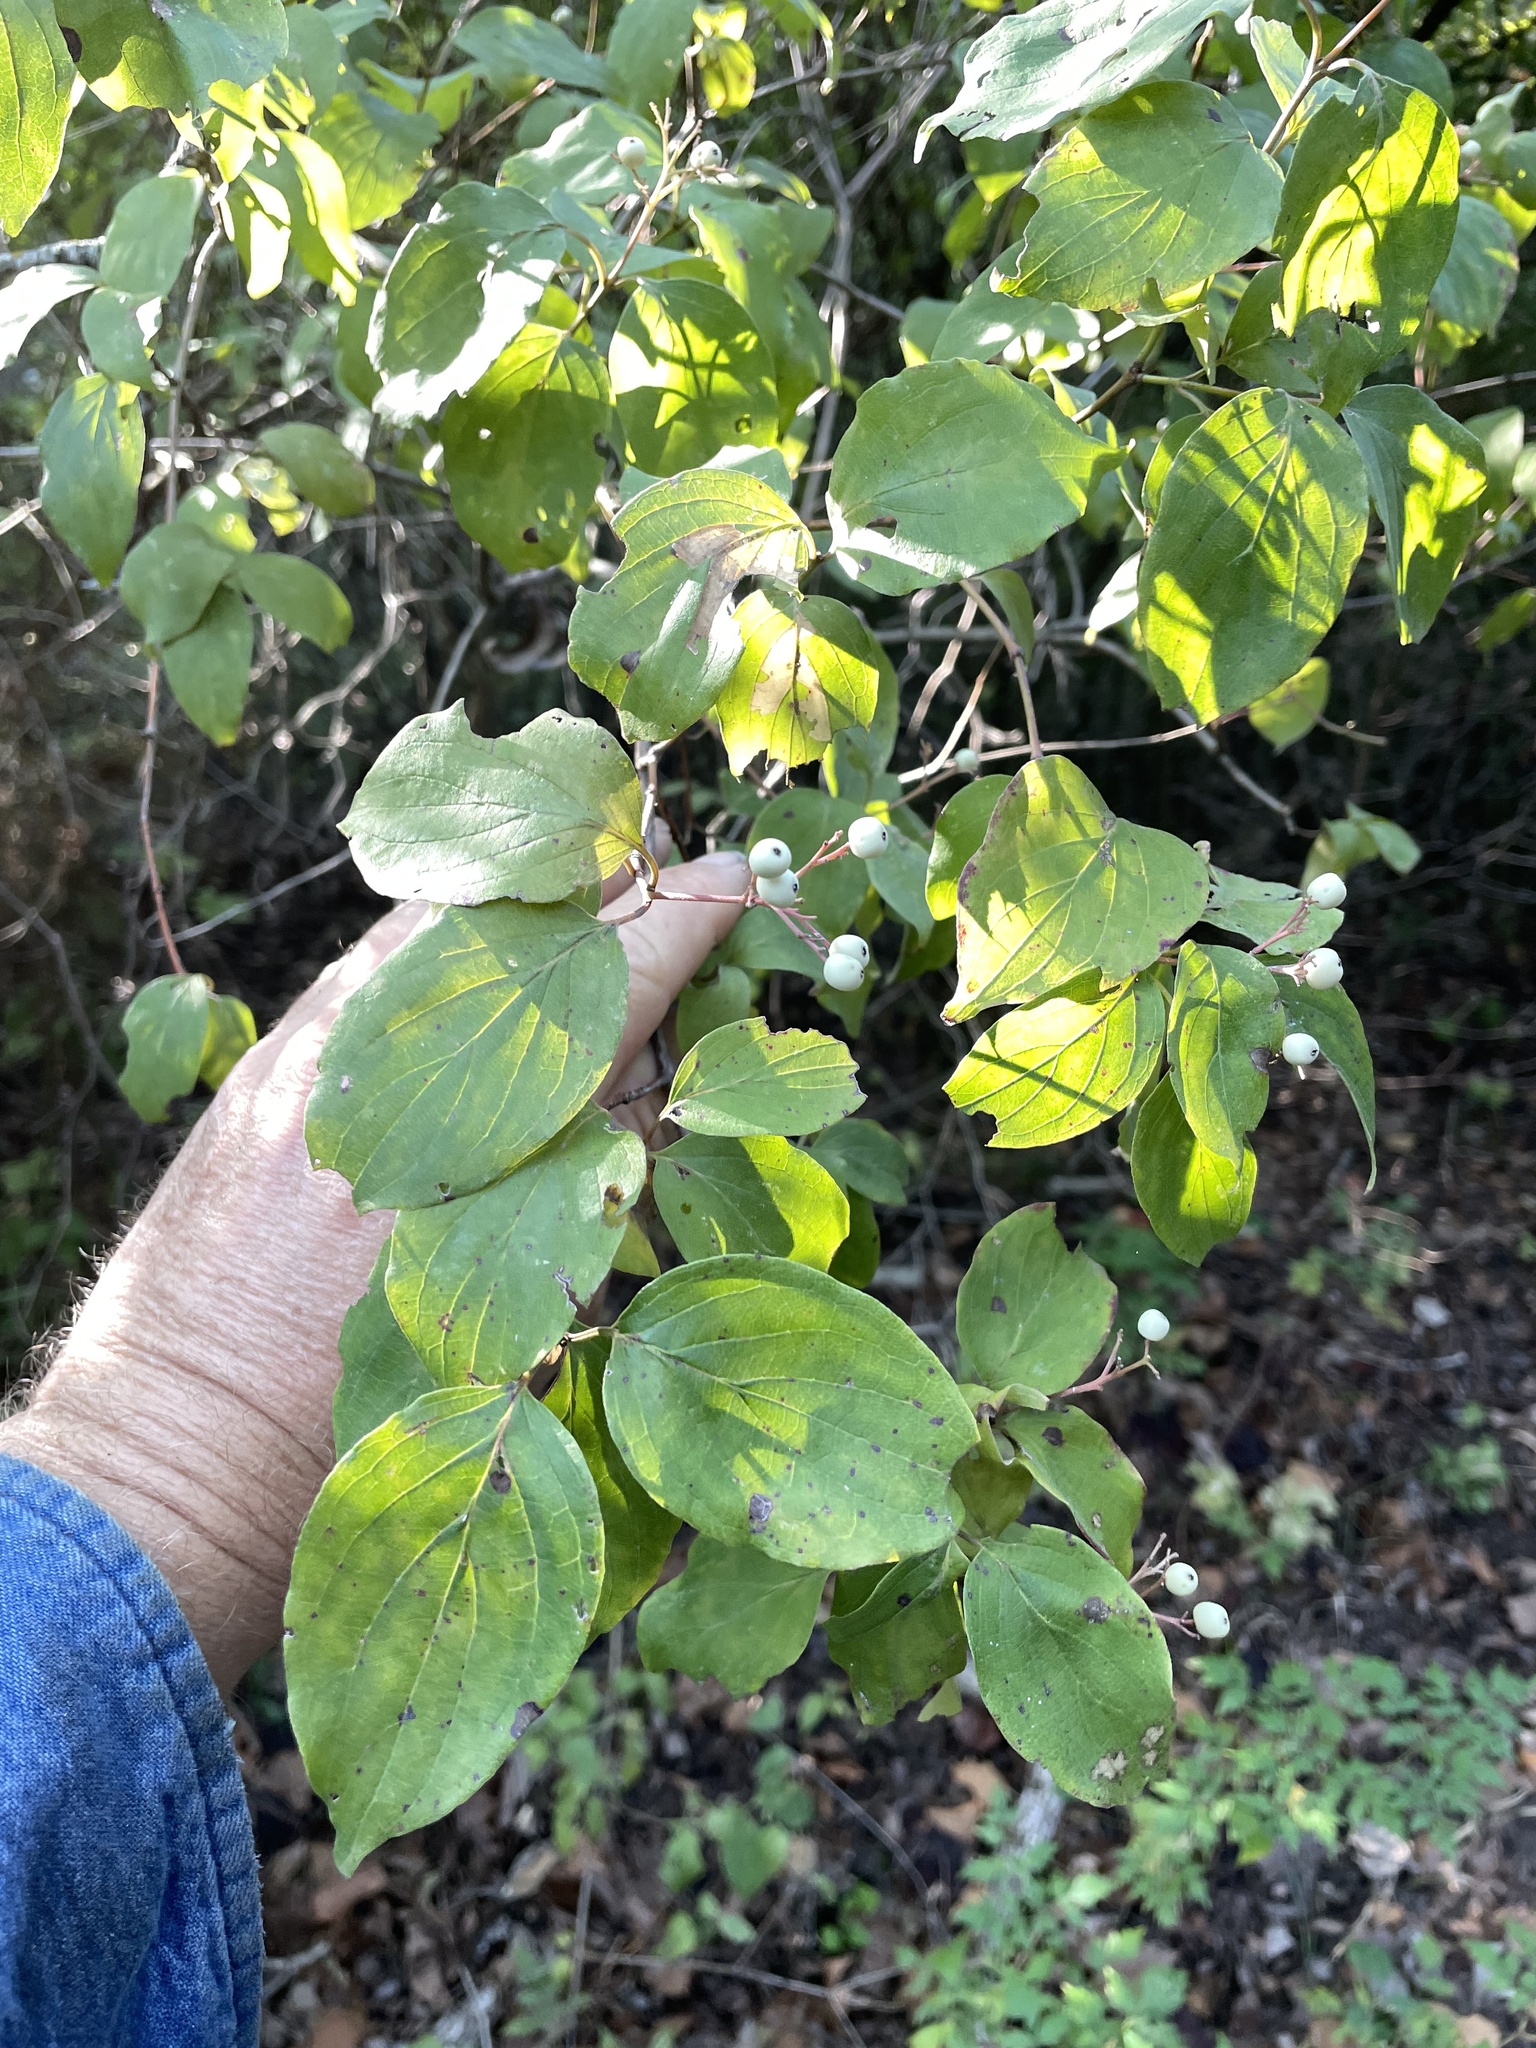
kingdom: Plantae
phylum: Tracheophyta
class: Magnoliopsida
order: Cornales
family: Cornaceae
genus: Cornus
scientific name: Cornus drummondii
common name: Rough-leaf dogwood
